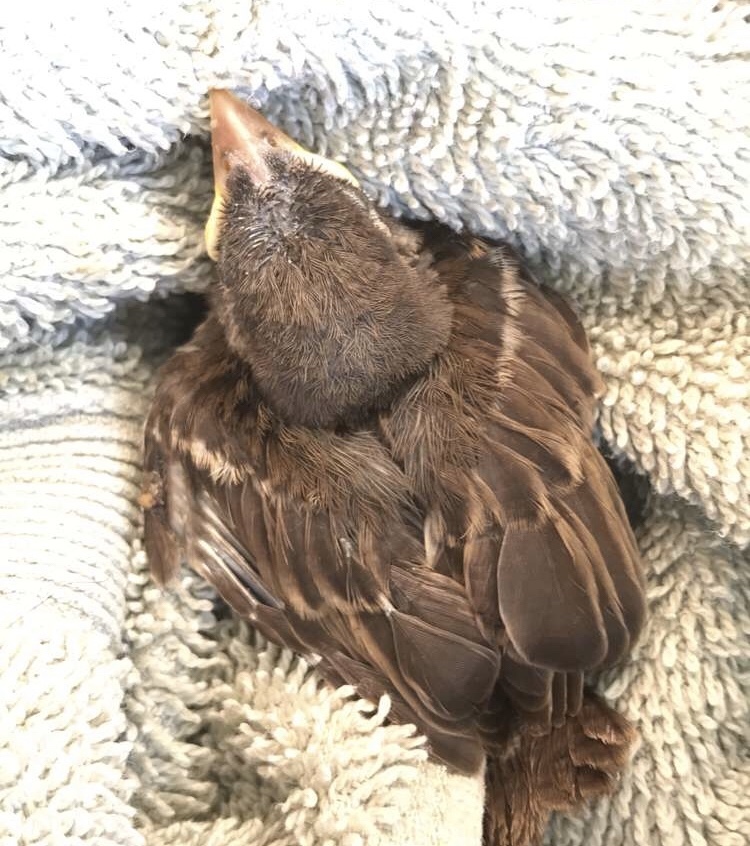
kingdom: Animalia
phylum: Chordata
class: Aves
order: Passeriformes
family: Passeridae
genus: Passer
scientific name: Passer domesticus
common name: House sparrow
